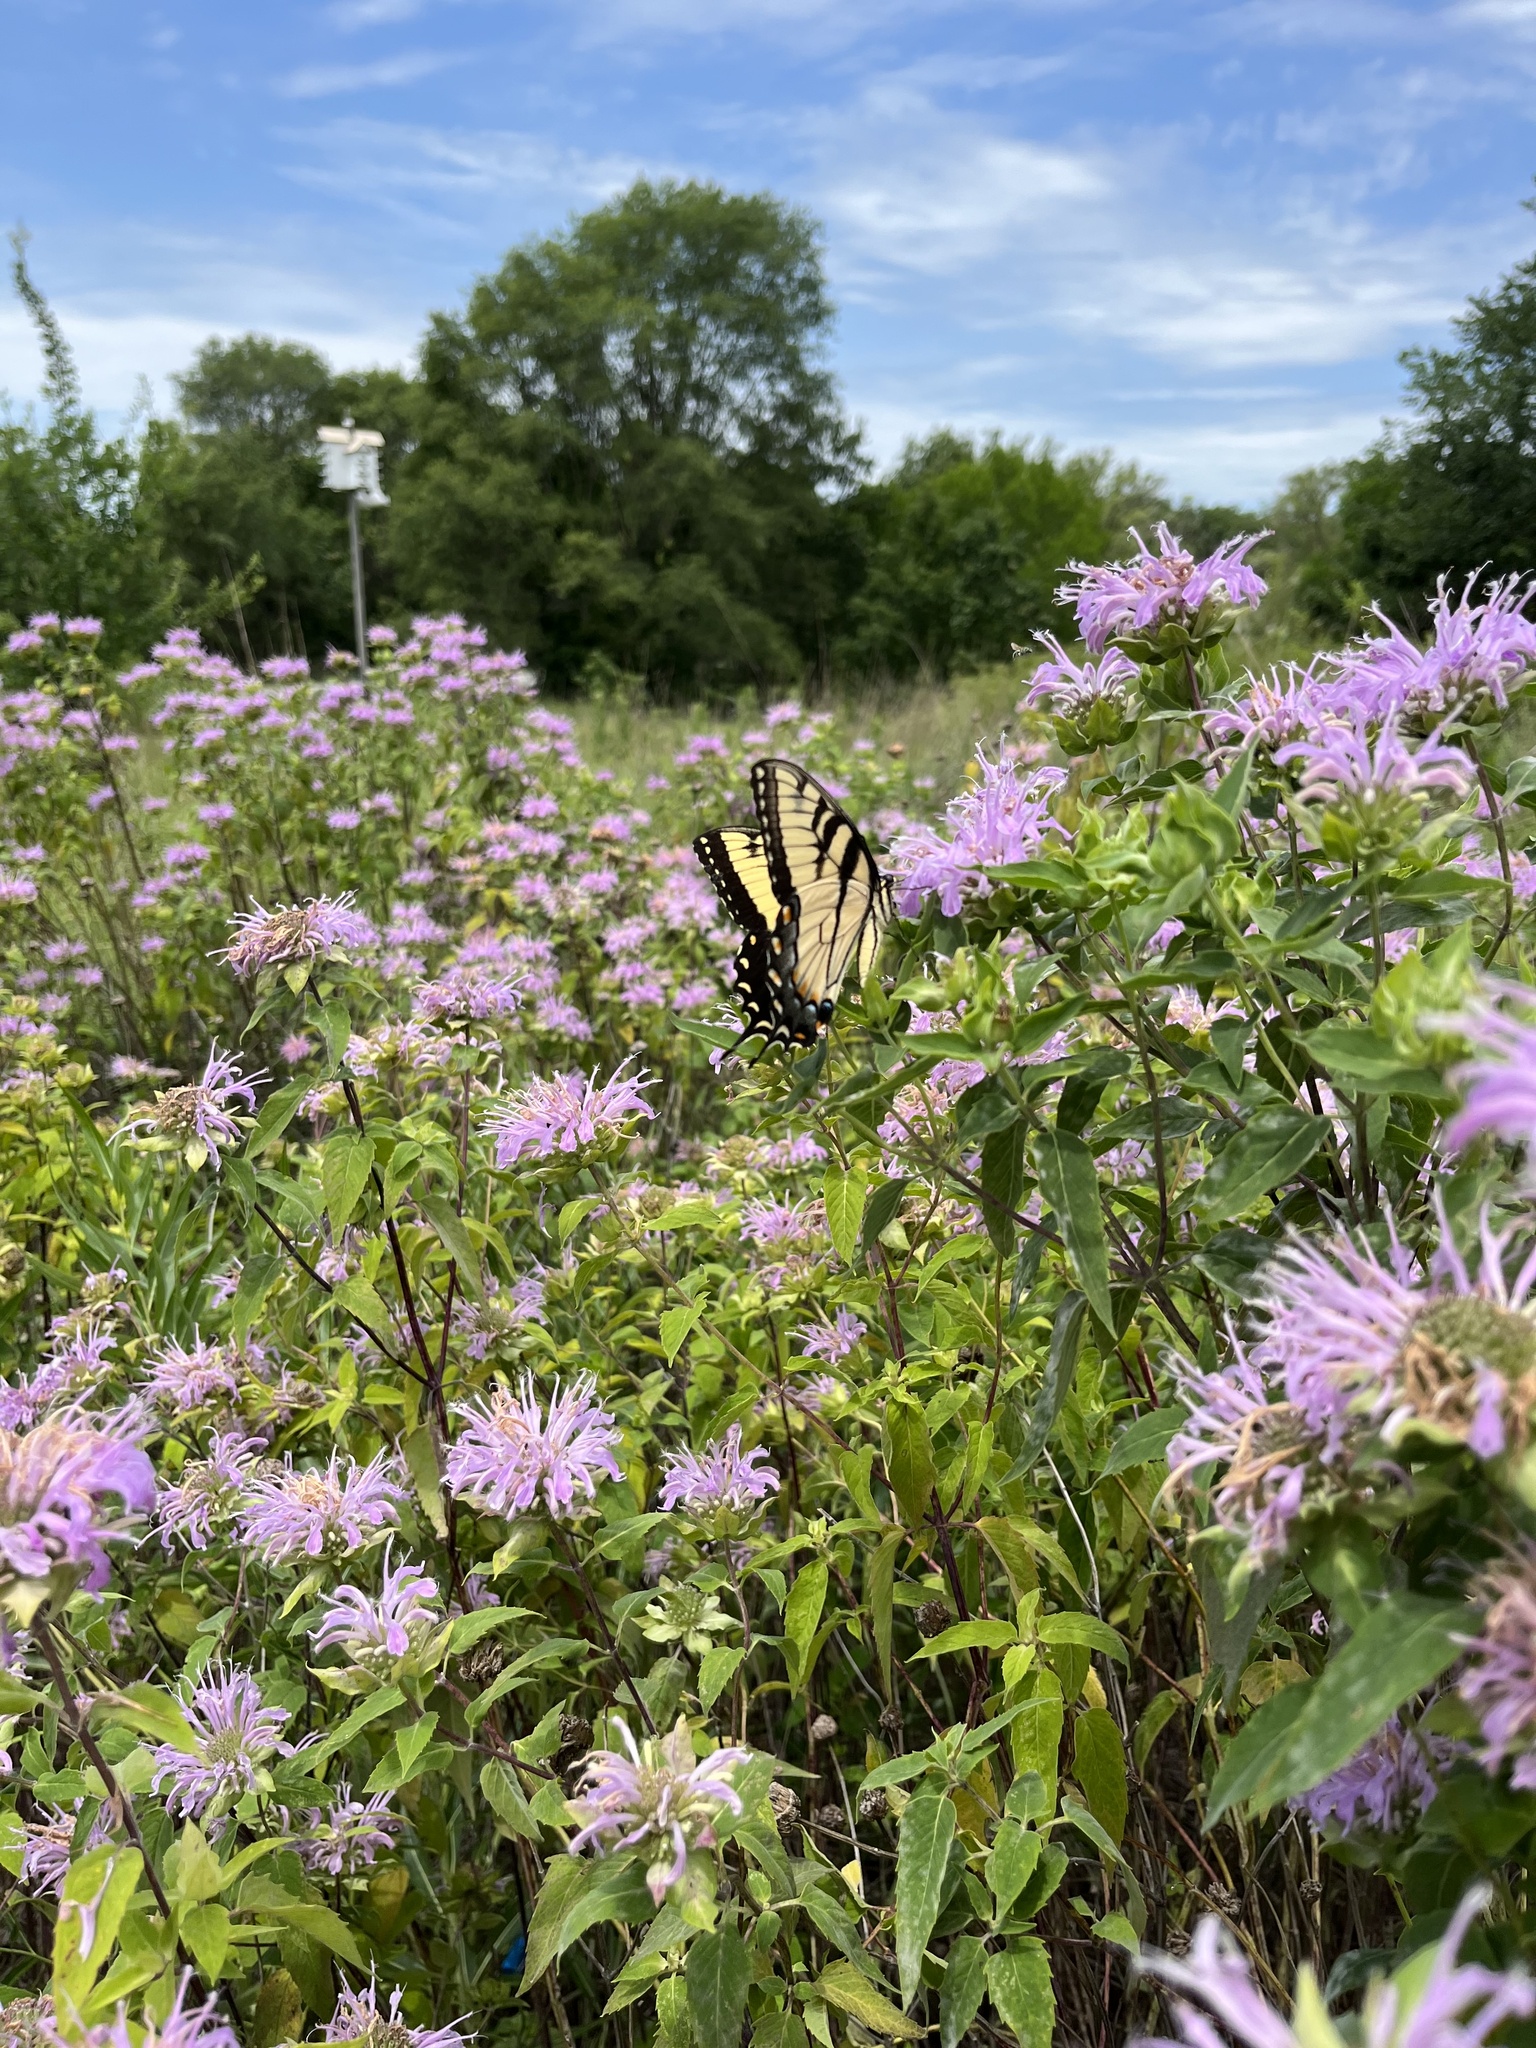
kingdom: Animalia
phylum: Arthropoda
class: Insecta
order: Lepidoptera
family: Papilionidae
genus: Papilio
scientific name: Papilio glaucus
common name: Tiger swallowtail
